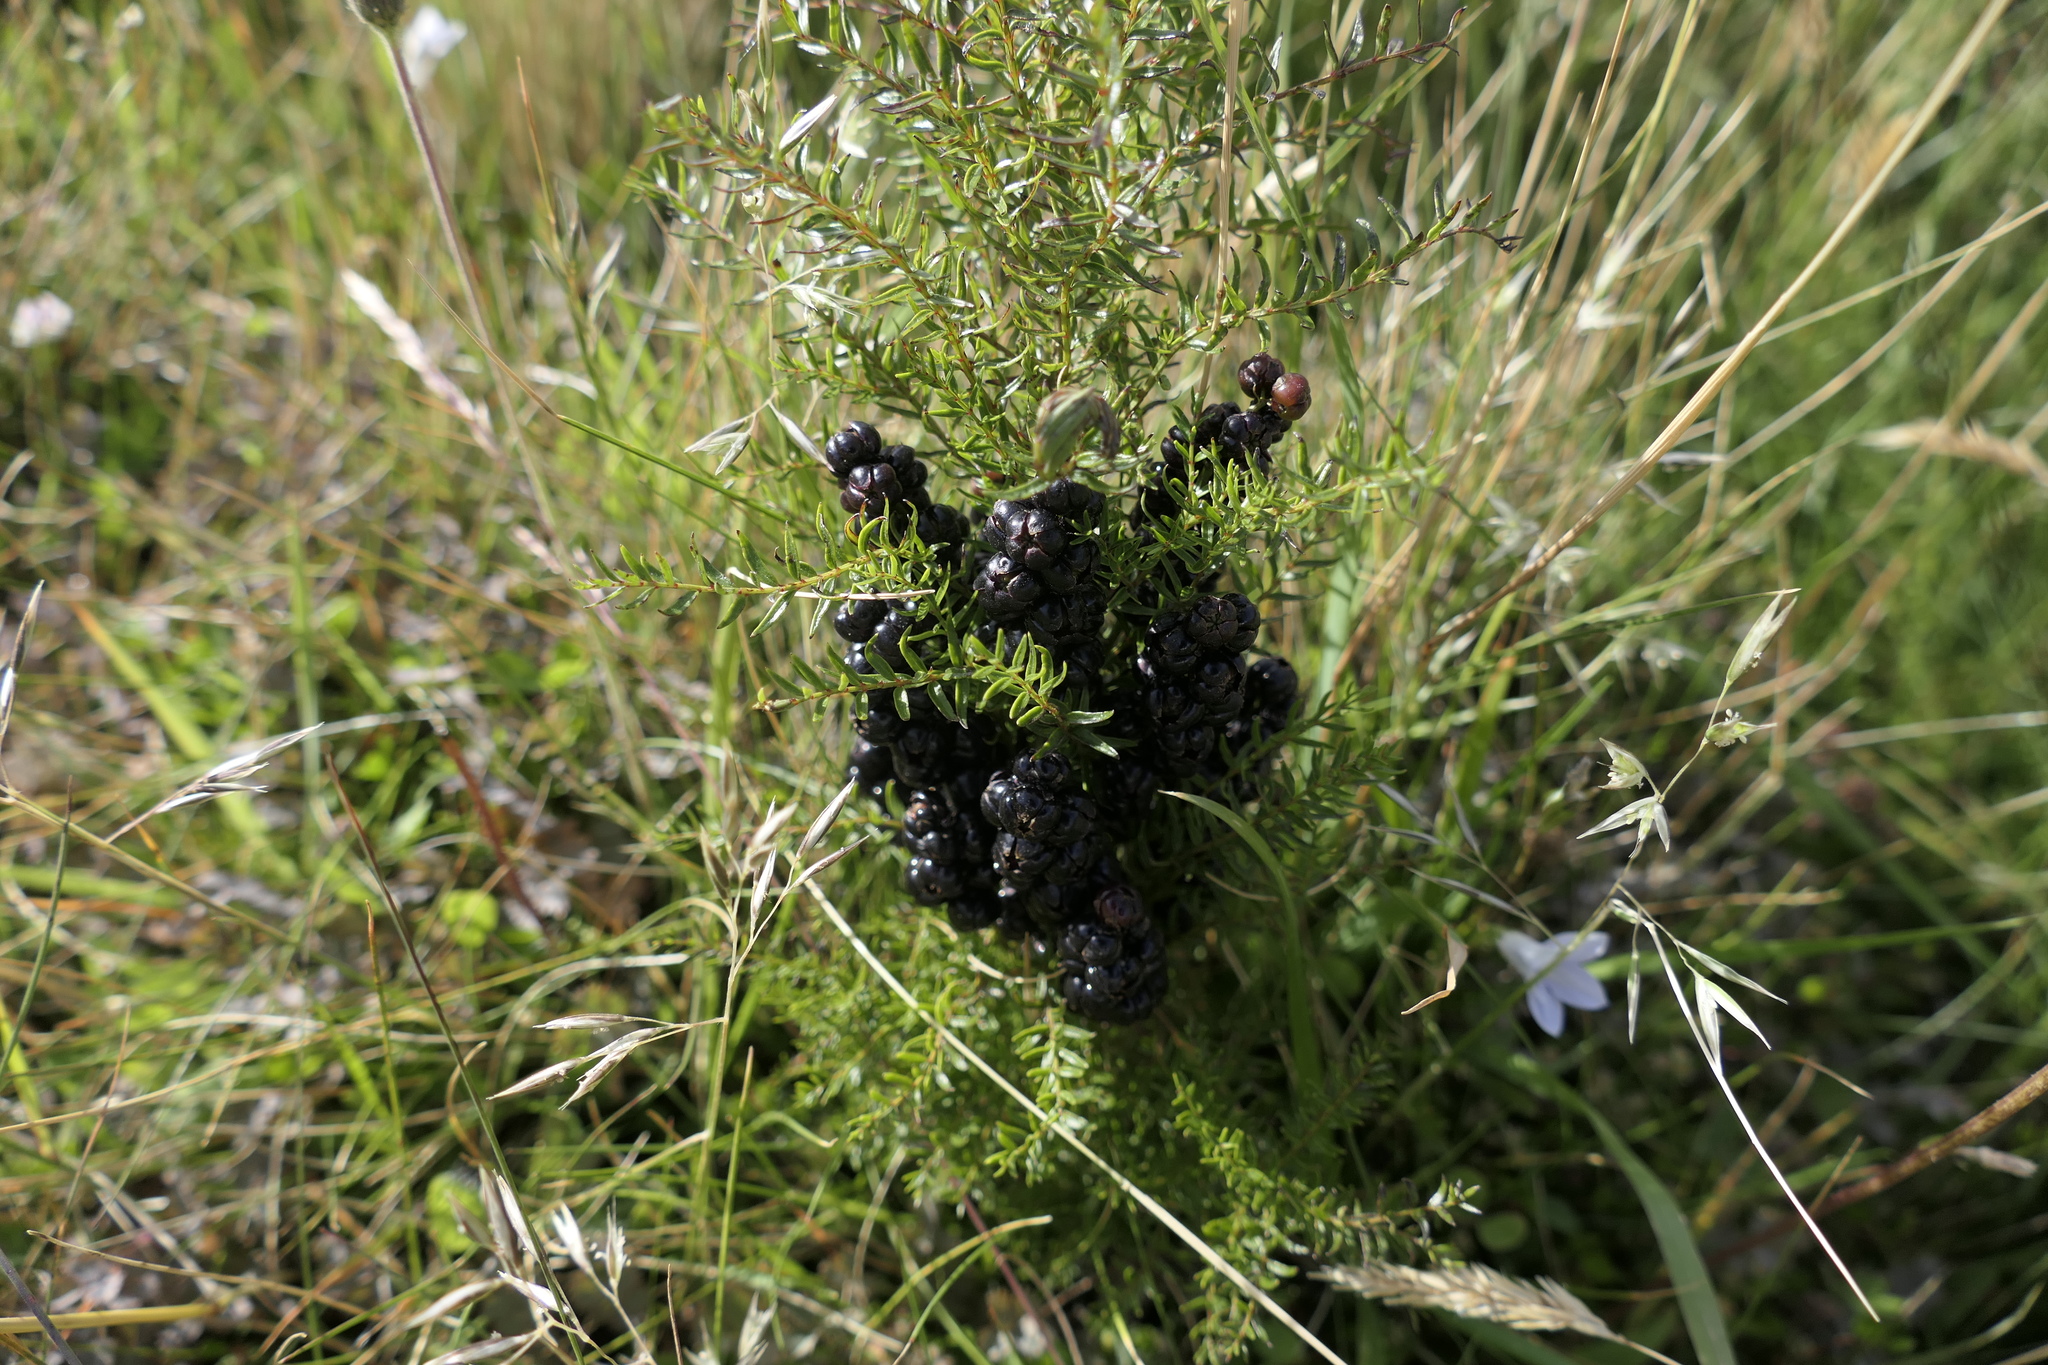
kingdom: Plantae
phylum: Tracheophyta
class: Magnoliopsida
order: Cucurbitales
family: Coriariaceae
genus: Coriaria
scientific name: Coriaria angustissima
